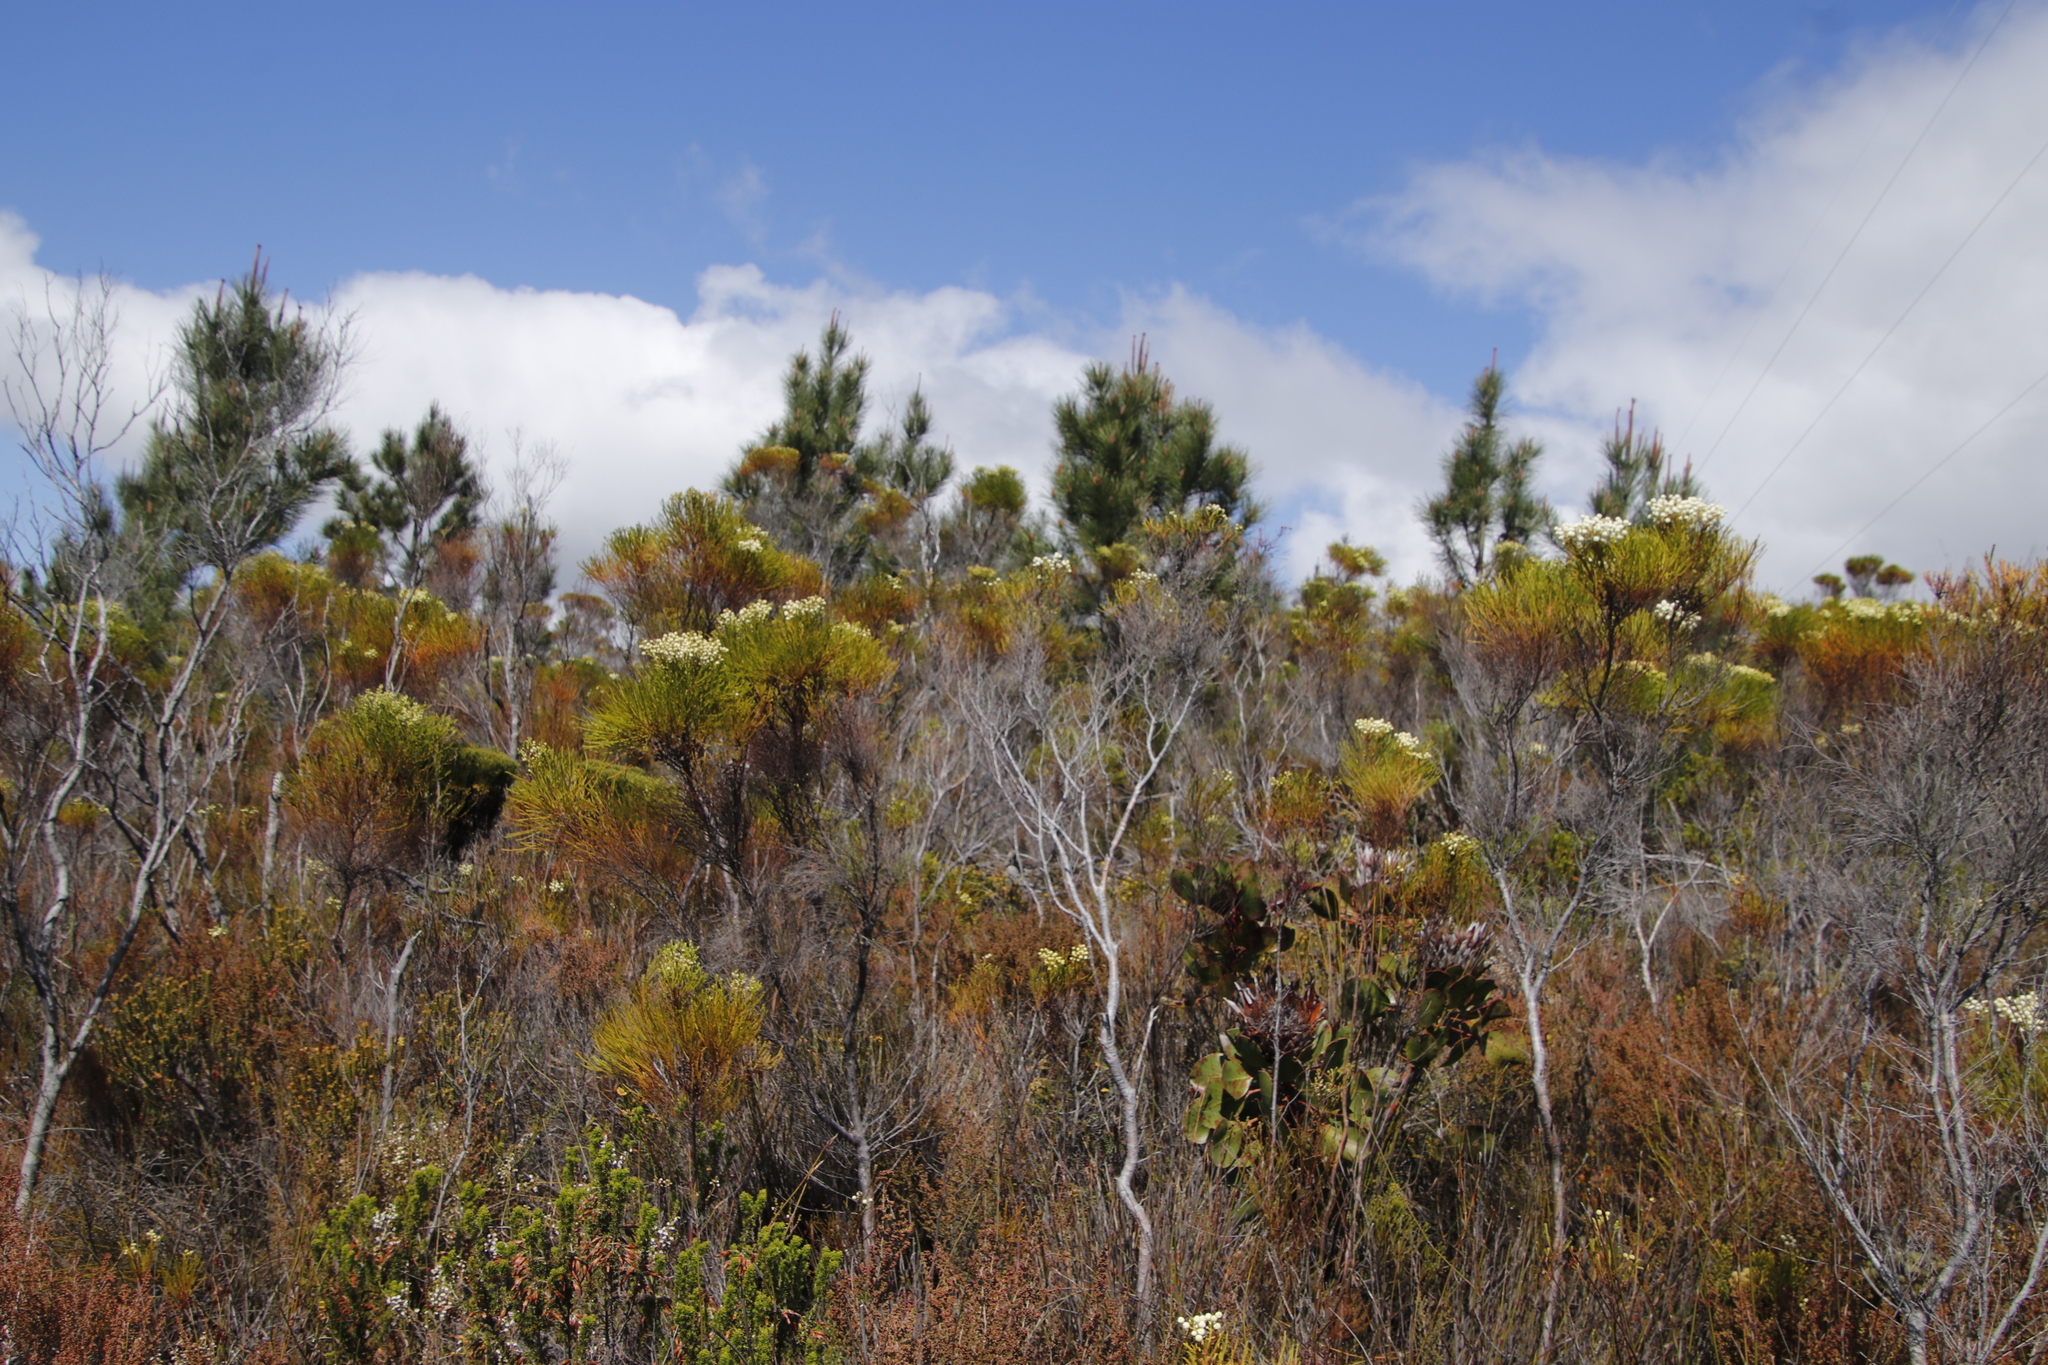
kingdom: Plantae
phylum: Tracheophyta
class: Pinopsida
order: Pinales
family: Pinaceae
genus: Pinus
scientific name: Pinus pinaster
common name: Maritime pine
